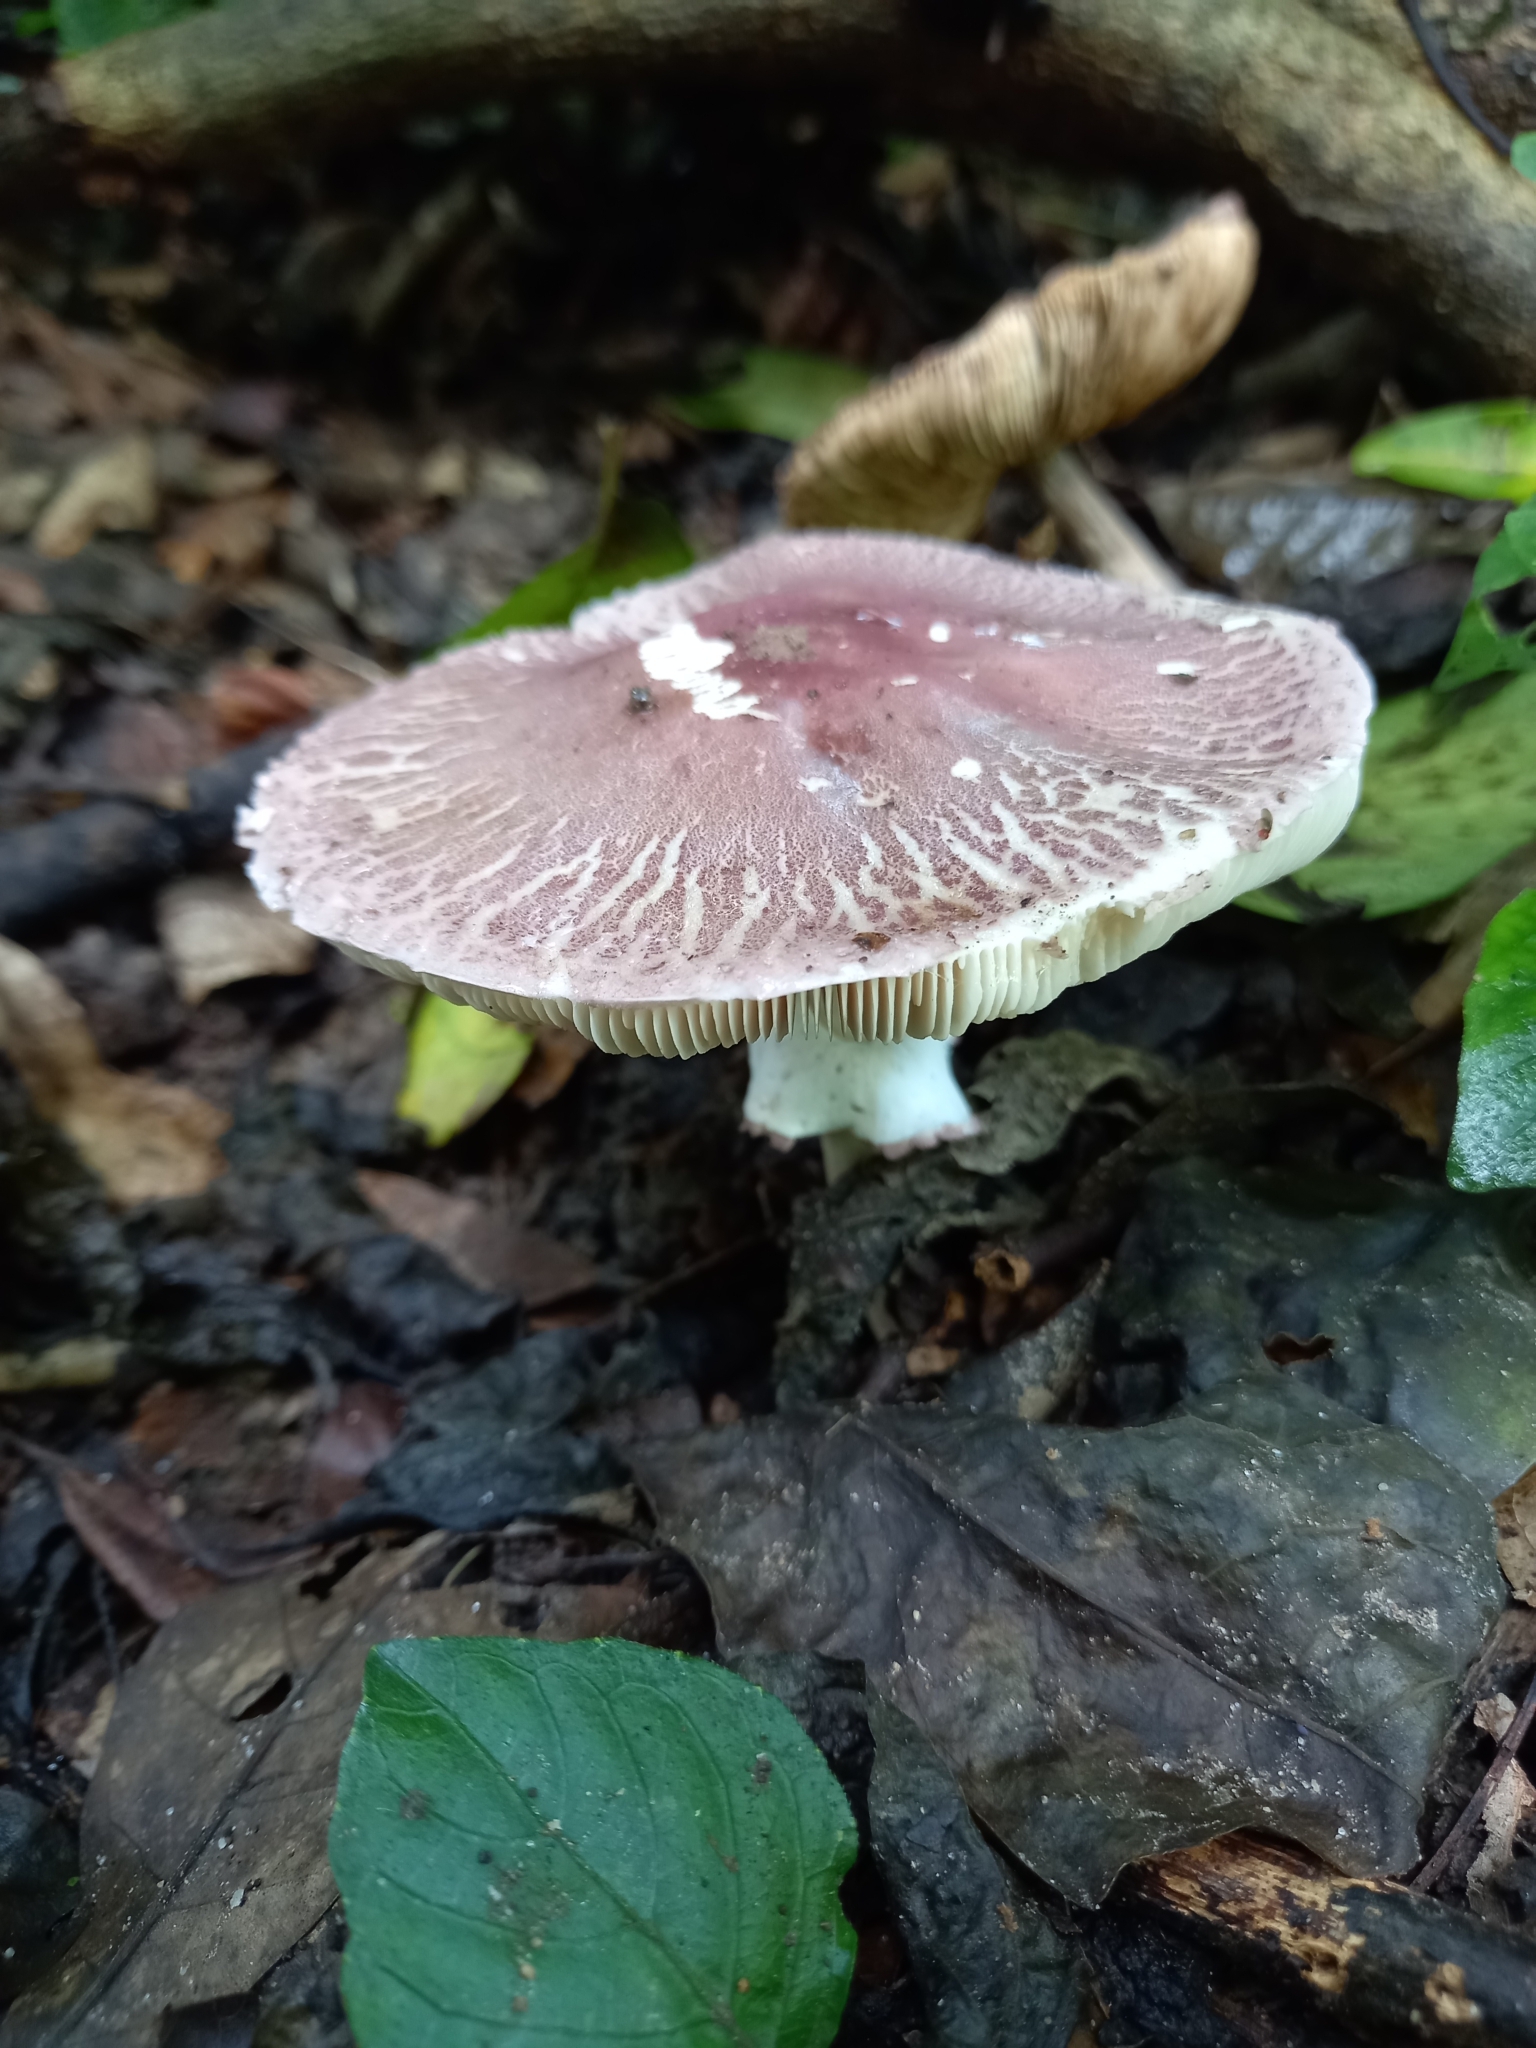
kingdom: Fungi
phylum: Basidiomycota
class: Agaricomycetes
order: Agaricales
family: Agaricaceae
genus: Leucoagaricus
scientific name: Leucoagaricus lilaceus
